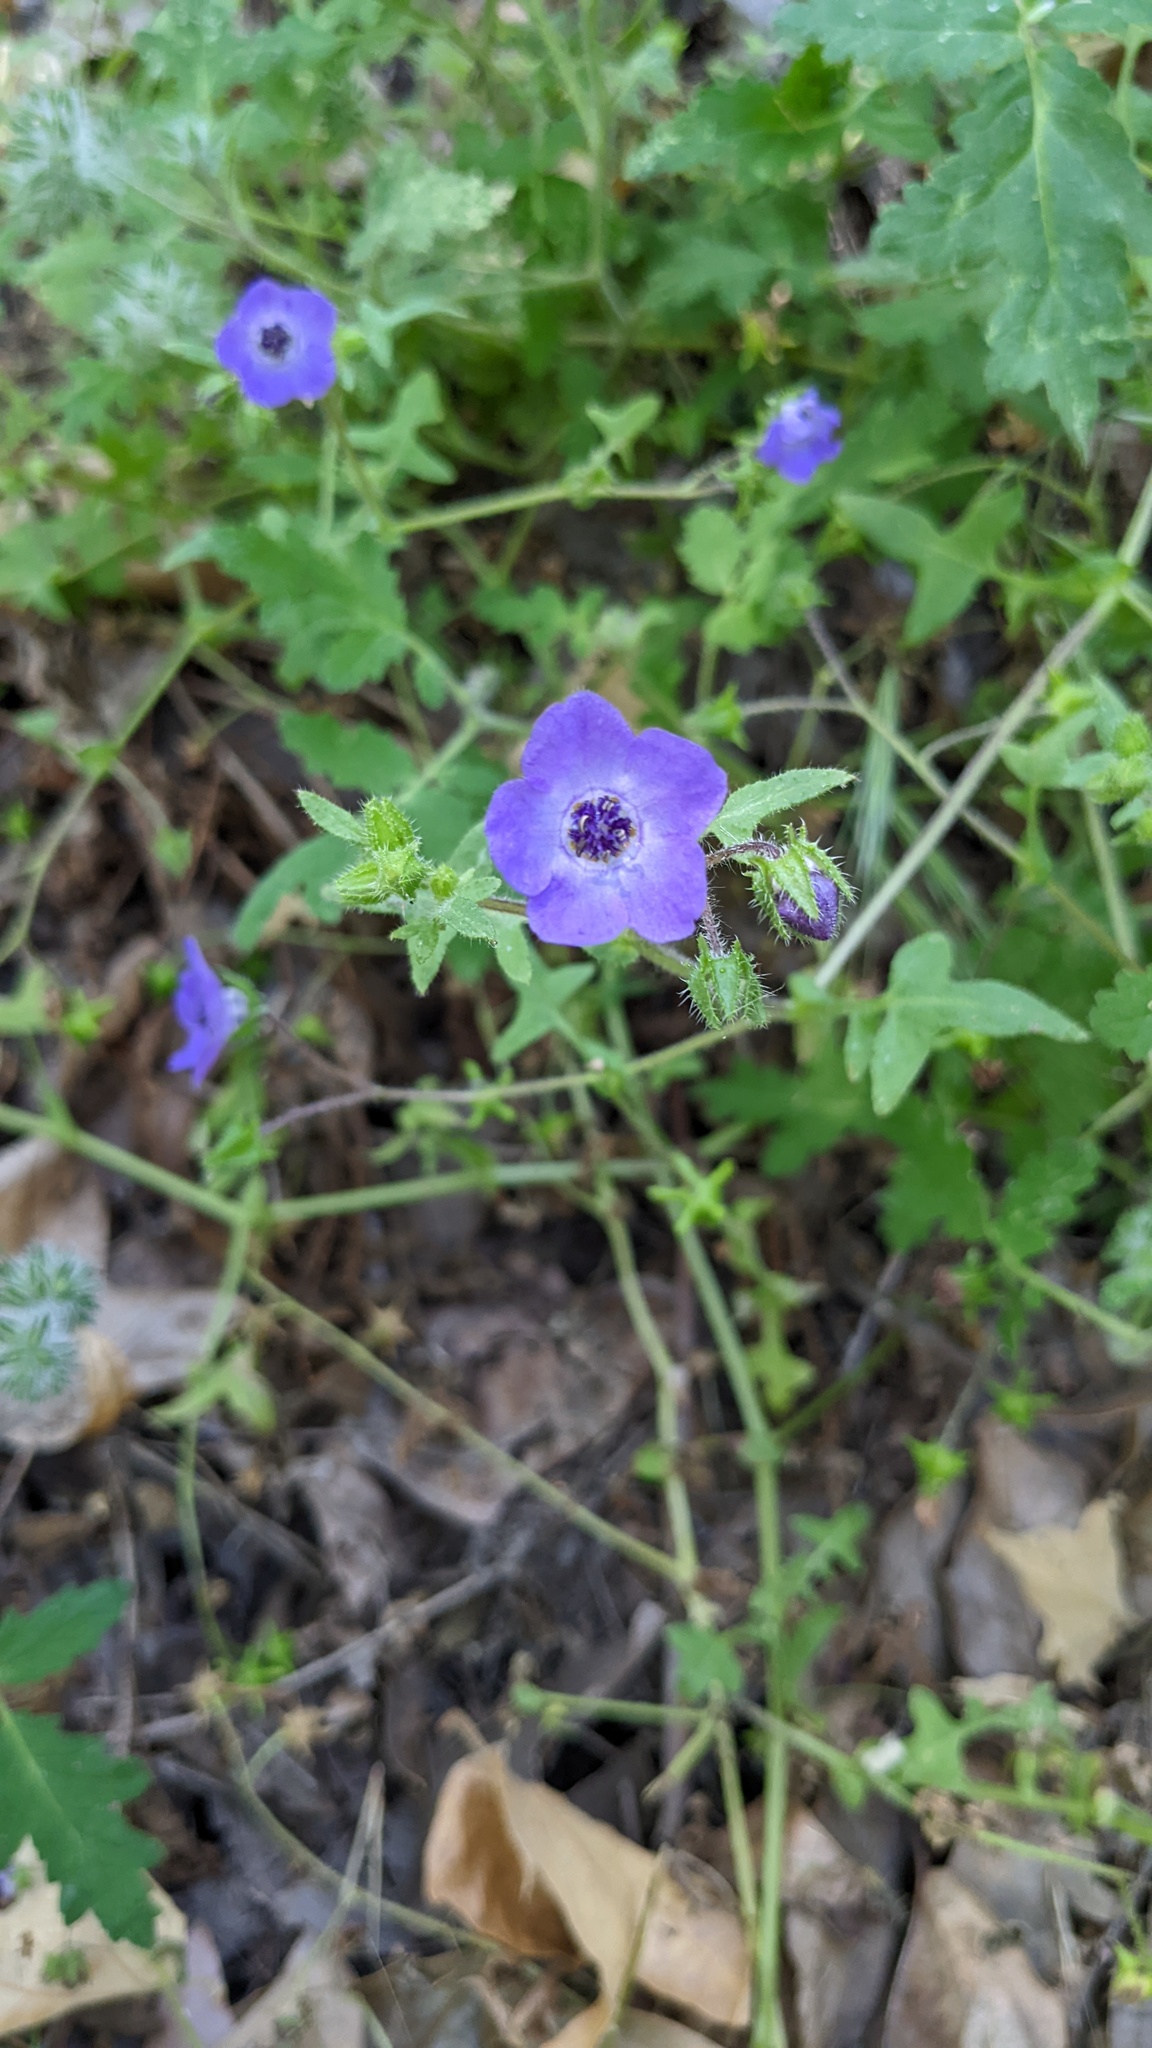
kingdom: Plantae
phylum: Tracheophyta
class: Magnoliopsida
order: Boraginales
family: Hydrophyllaceae
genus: Pholistoma
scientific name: Pholistoma auritum
